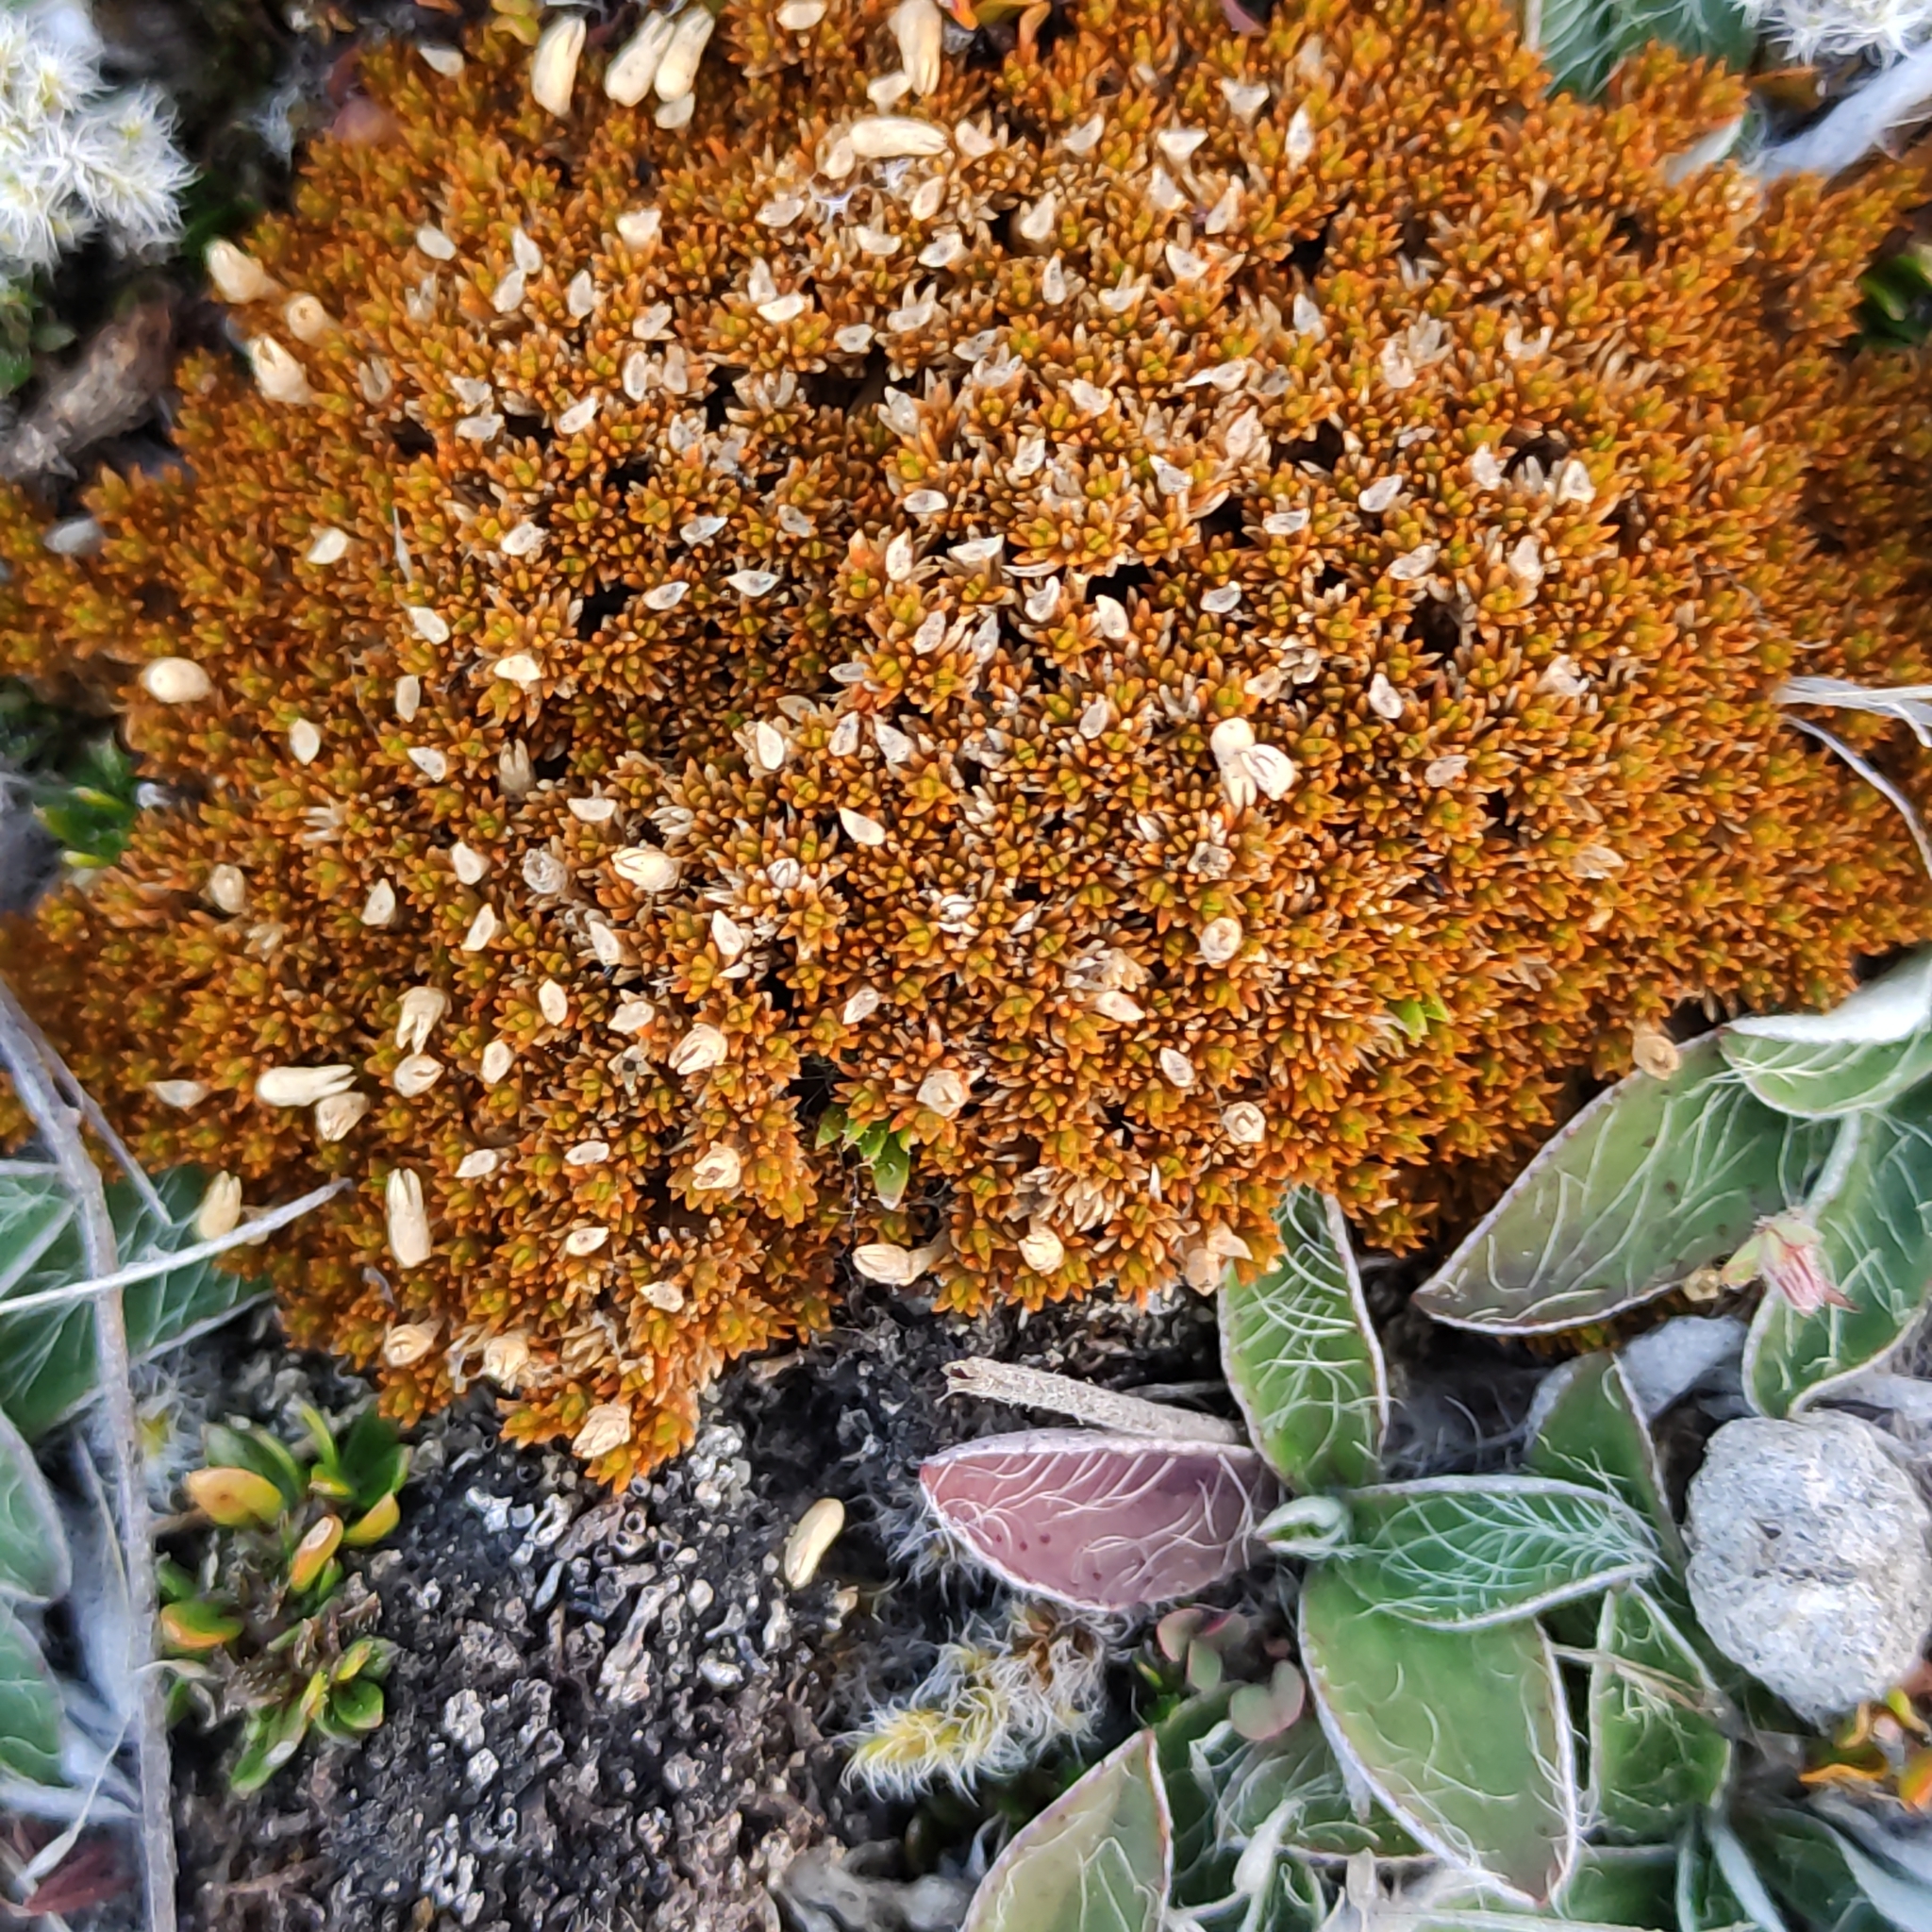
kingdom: Plantae
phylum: Tracheophyta
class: Magnoliopsida
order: Caryophyllales
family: Caryophyllaceae
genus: Scleranthus
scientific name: Scleranthus uniflorus
